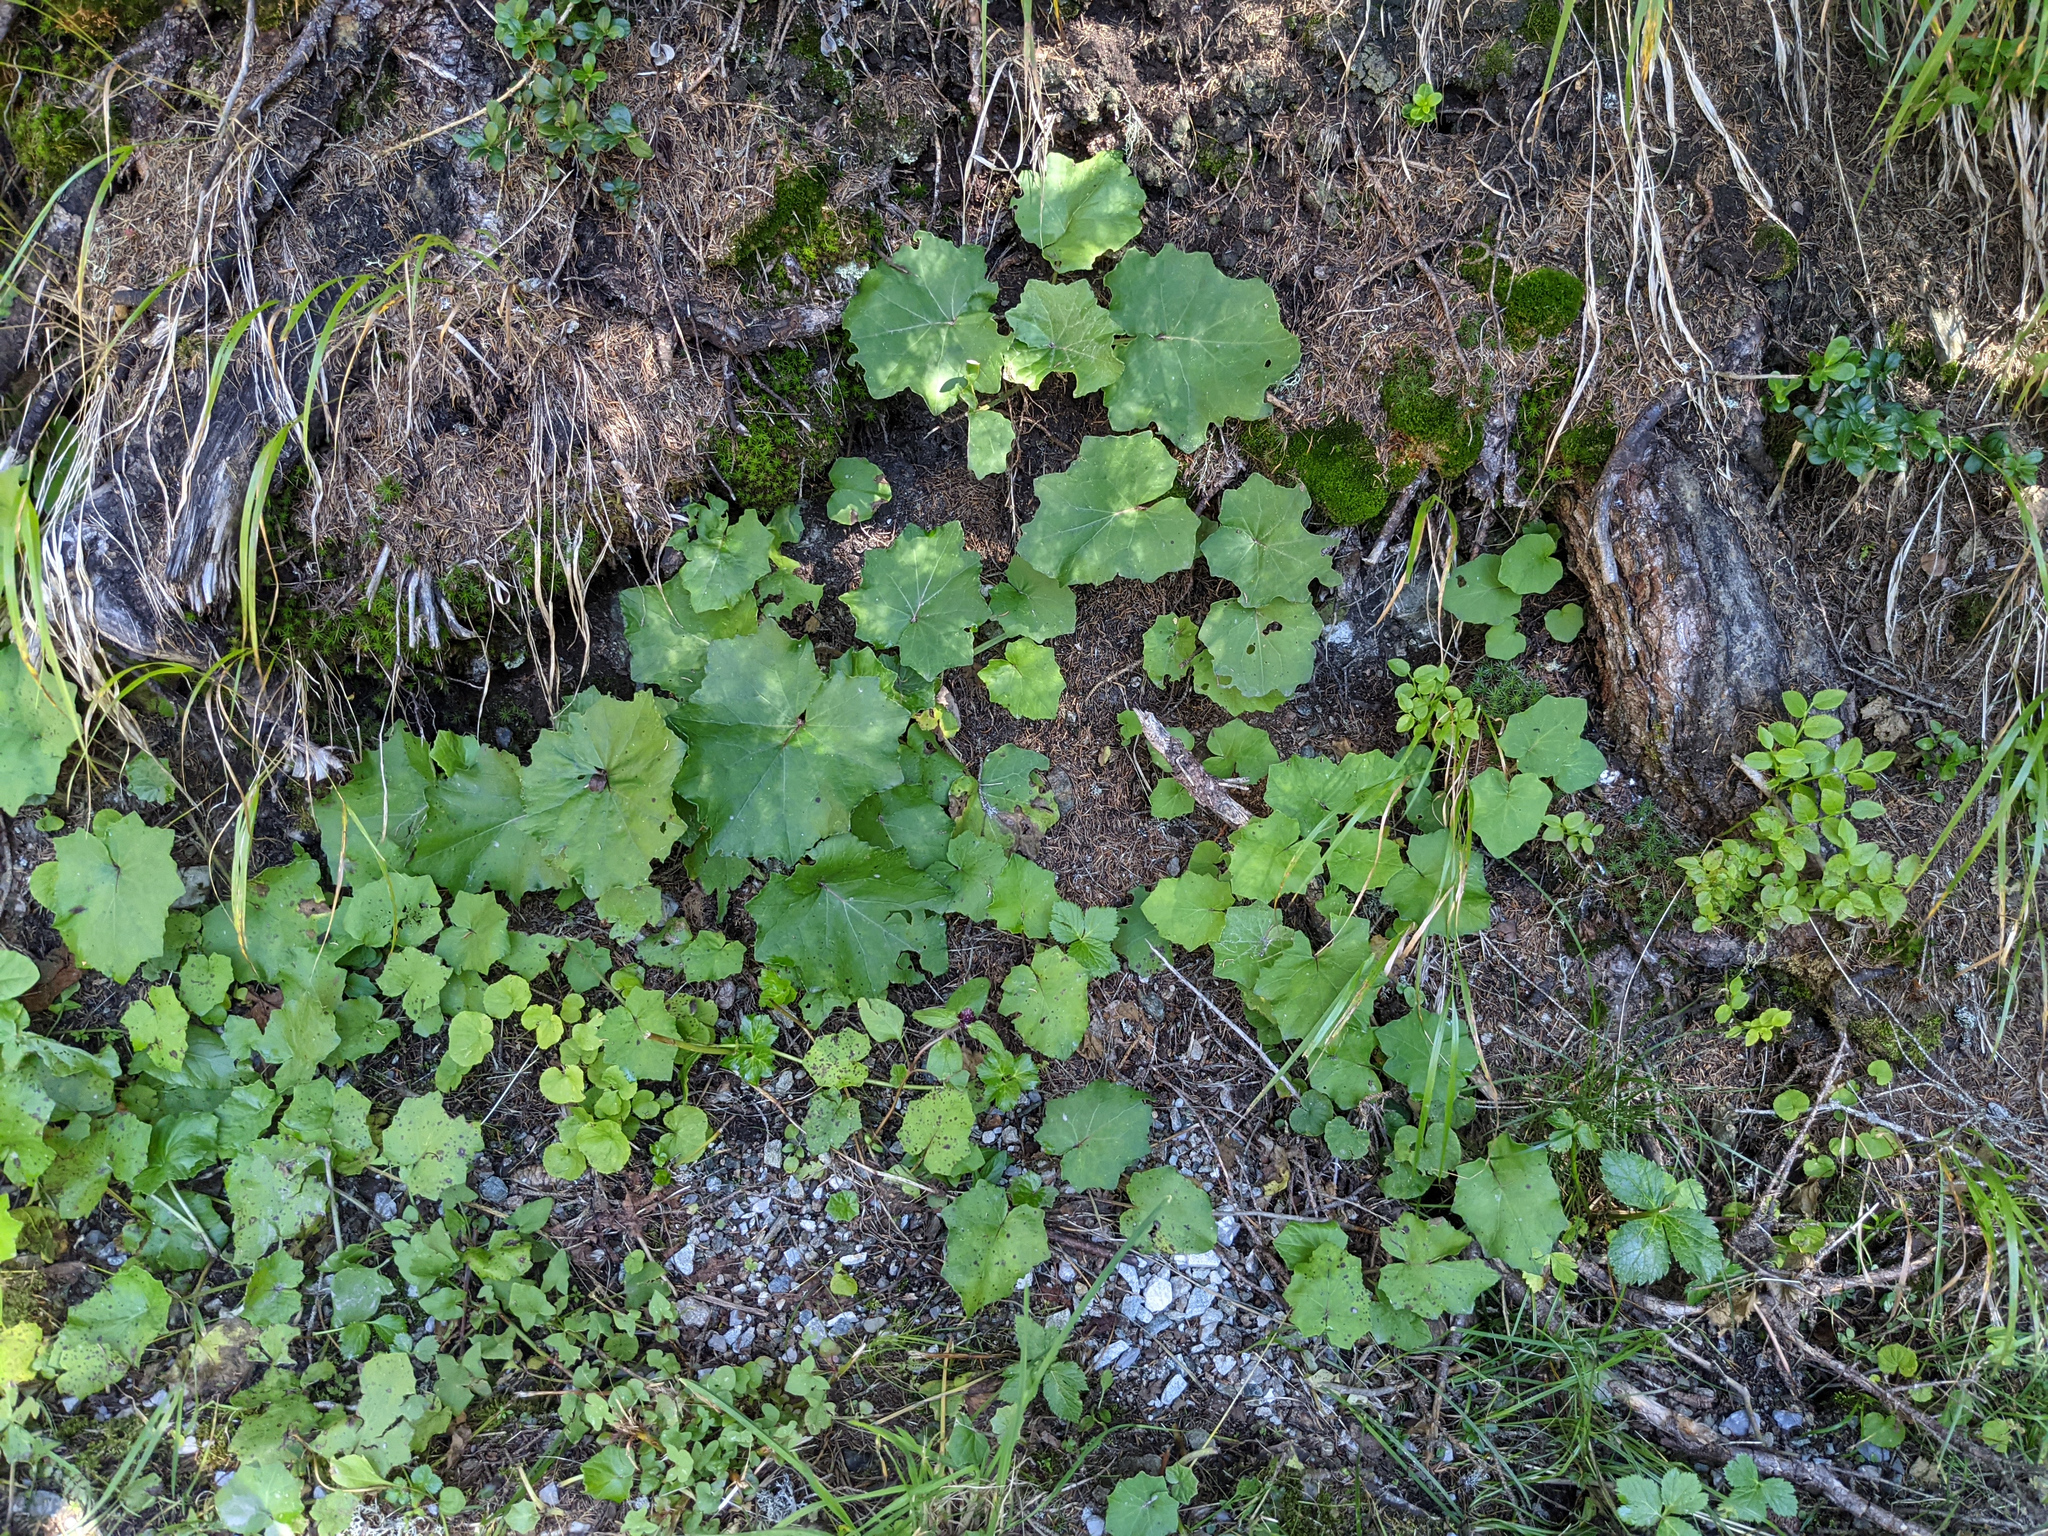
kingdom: Plantae
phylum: Tracheophyta
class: Magnoliopsida
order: Asterales
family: Asteraceae
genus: Tussilago
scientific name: Tussilago farfara
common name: Coltsfoot
